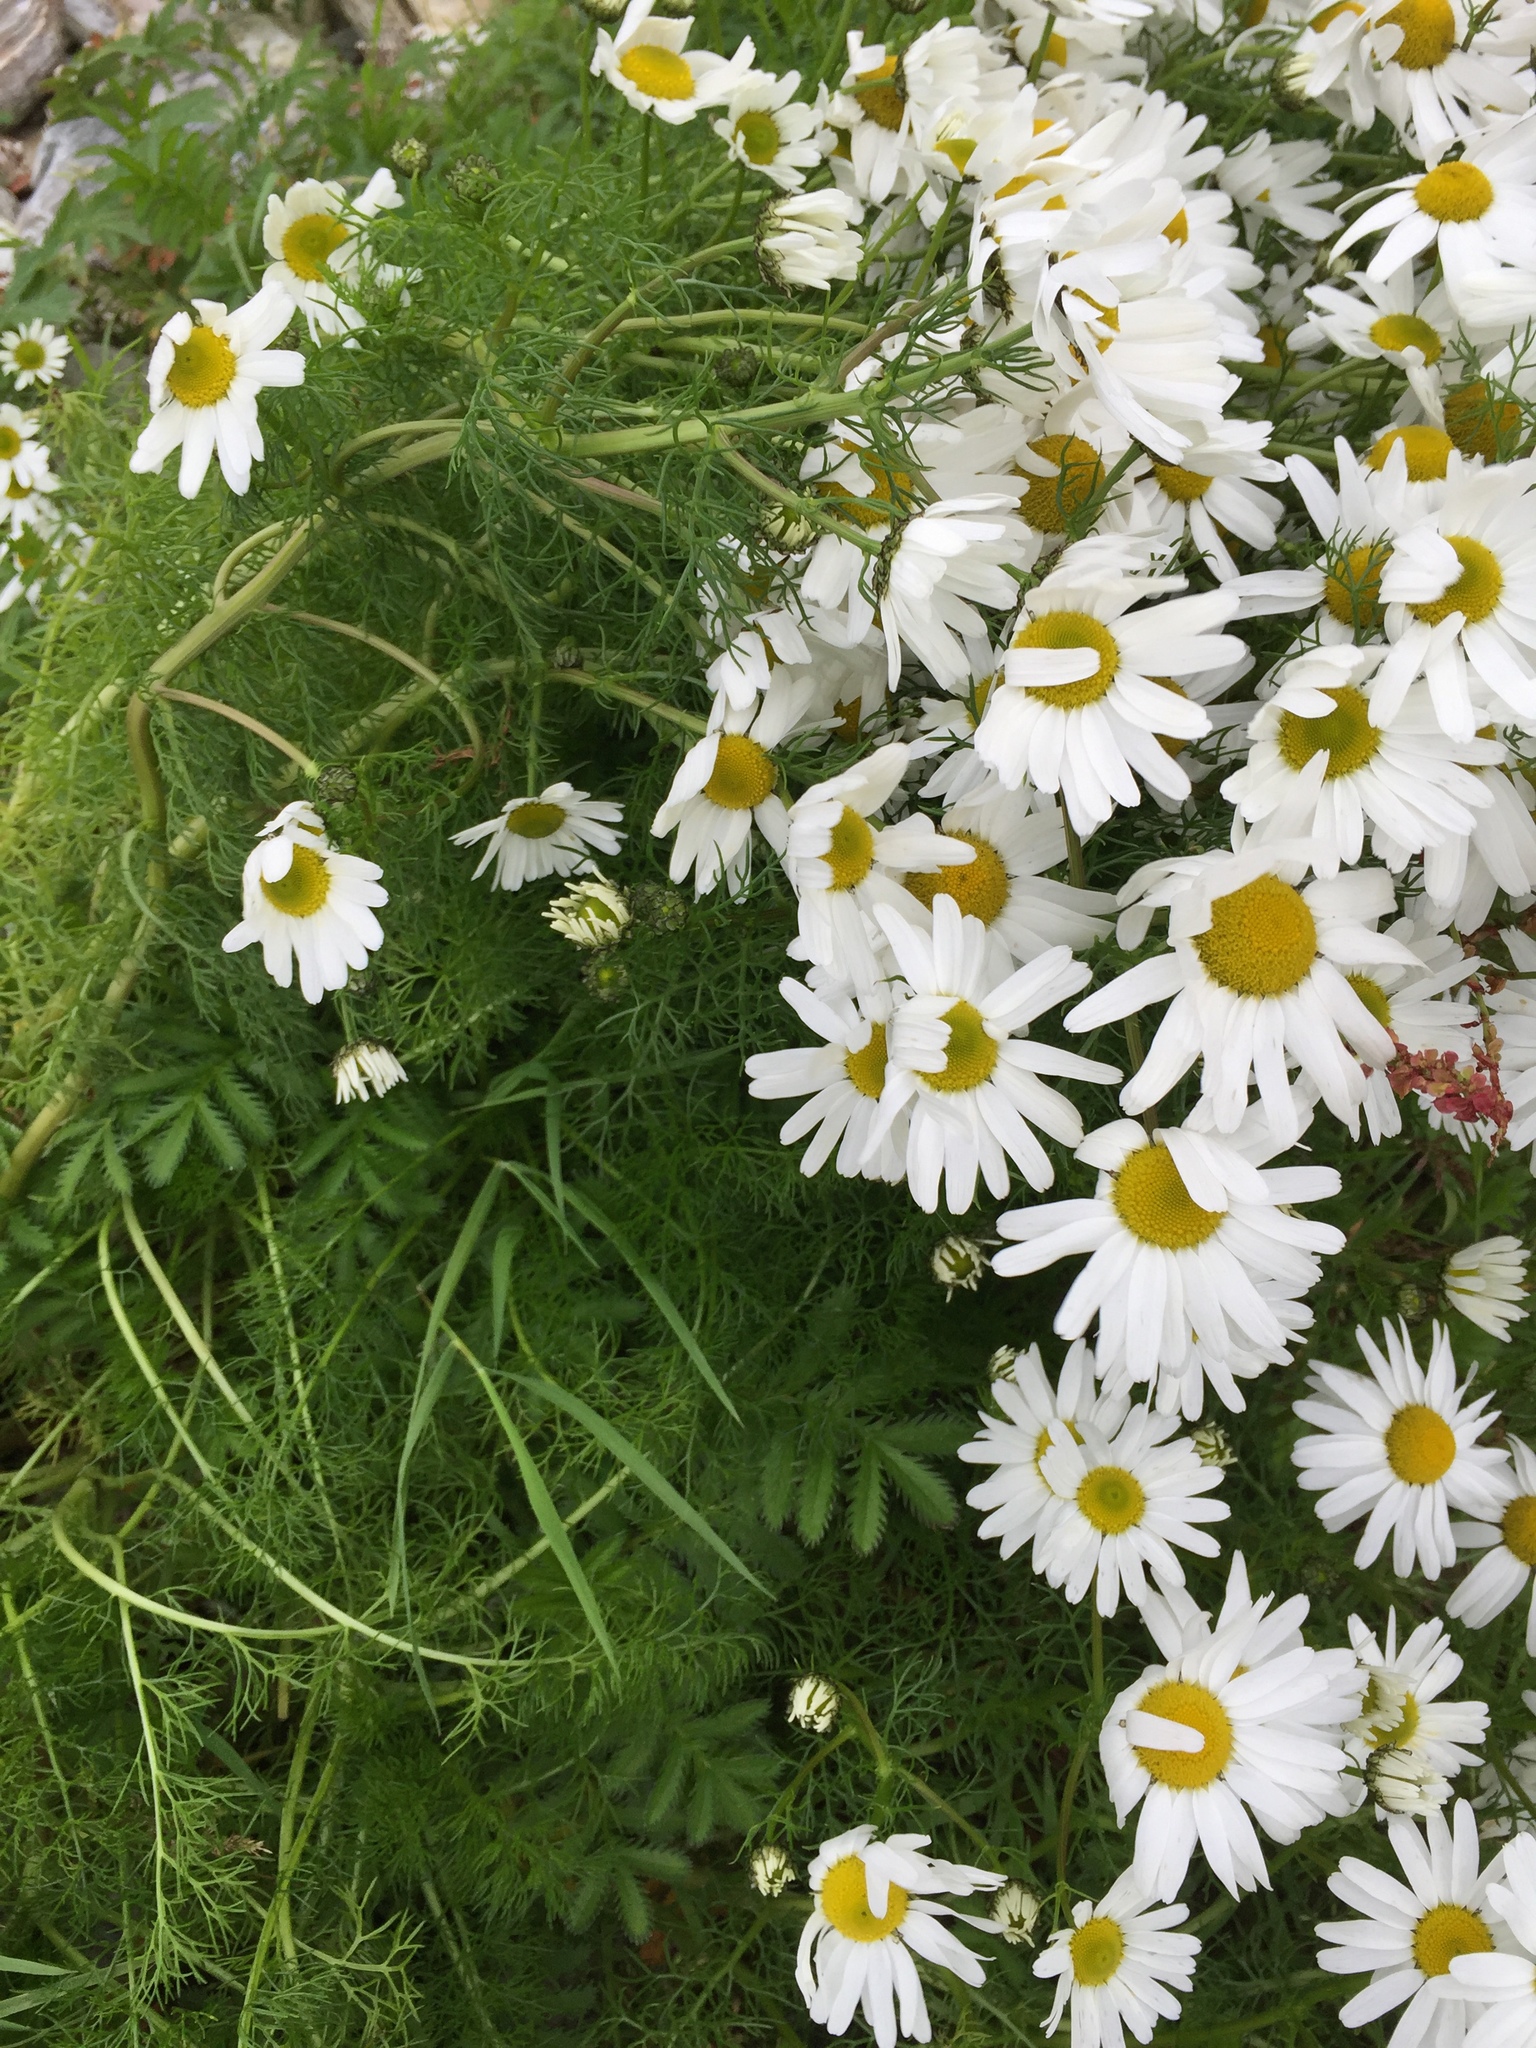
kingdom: Plantae
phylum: Tracheophyta
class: Magnoliopsida
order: Asterales
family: Asteraceae
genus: Tripleurospermum
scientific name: Tripleurospermum maritimum
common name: Sea mayweed
